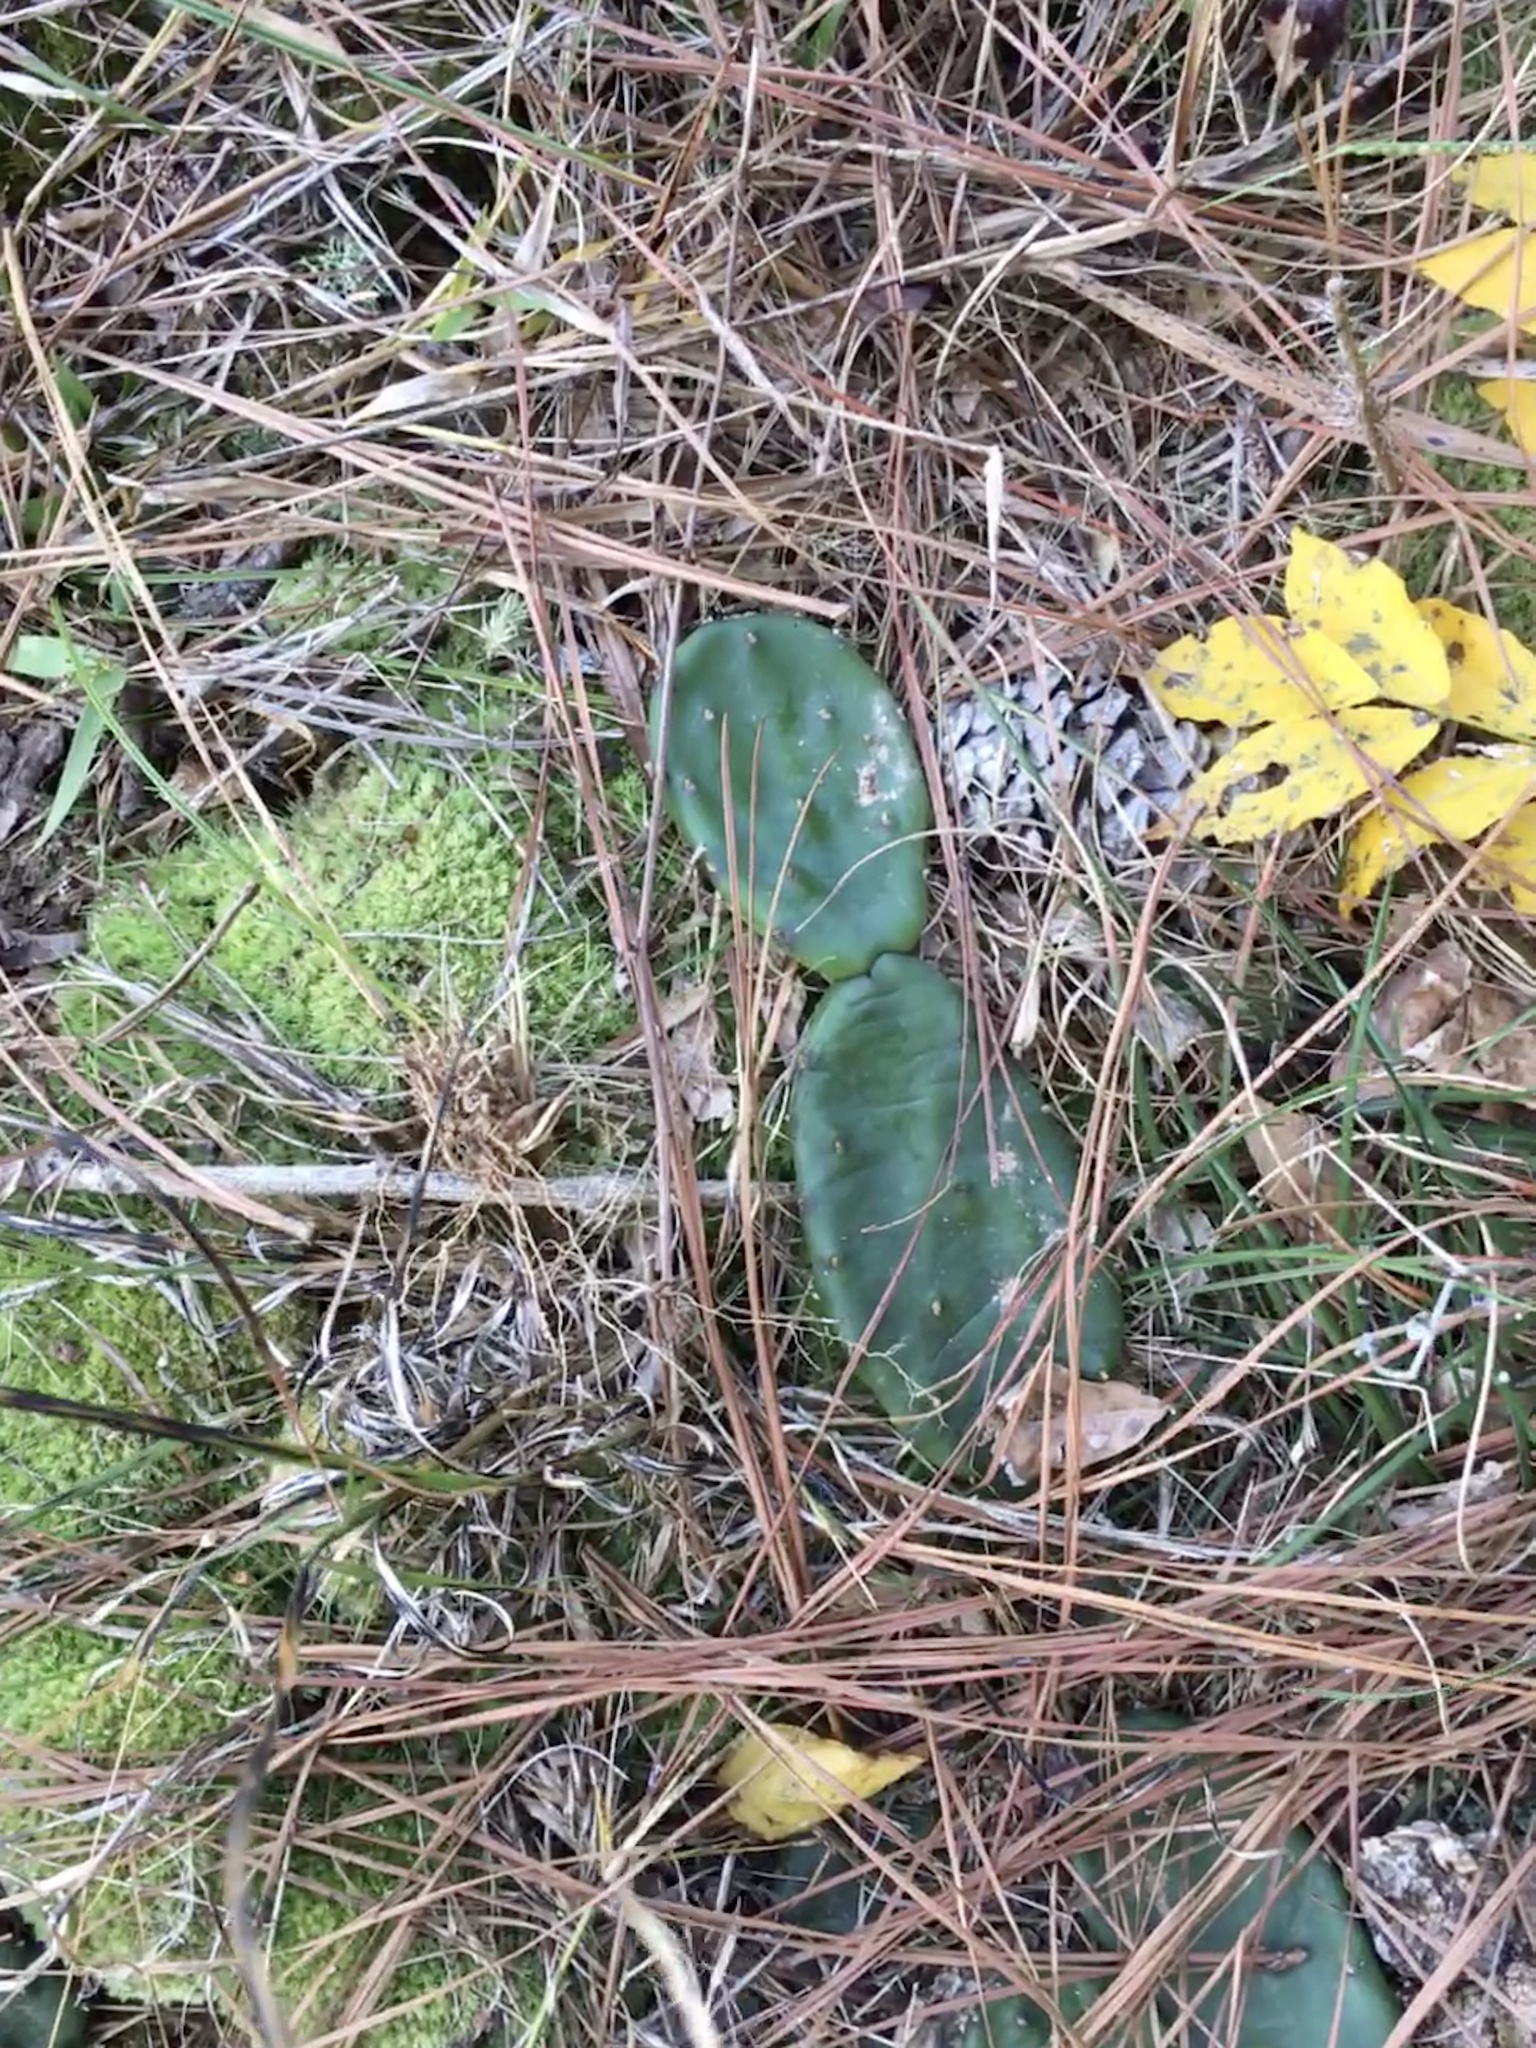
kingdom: Plantae
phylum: Tracheophyta
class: Magnoliopsida
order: Caryophyllales
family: Cactaceae
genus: Opuntia
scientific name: Opuntia mesacantha
